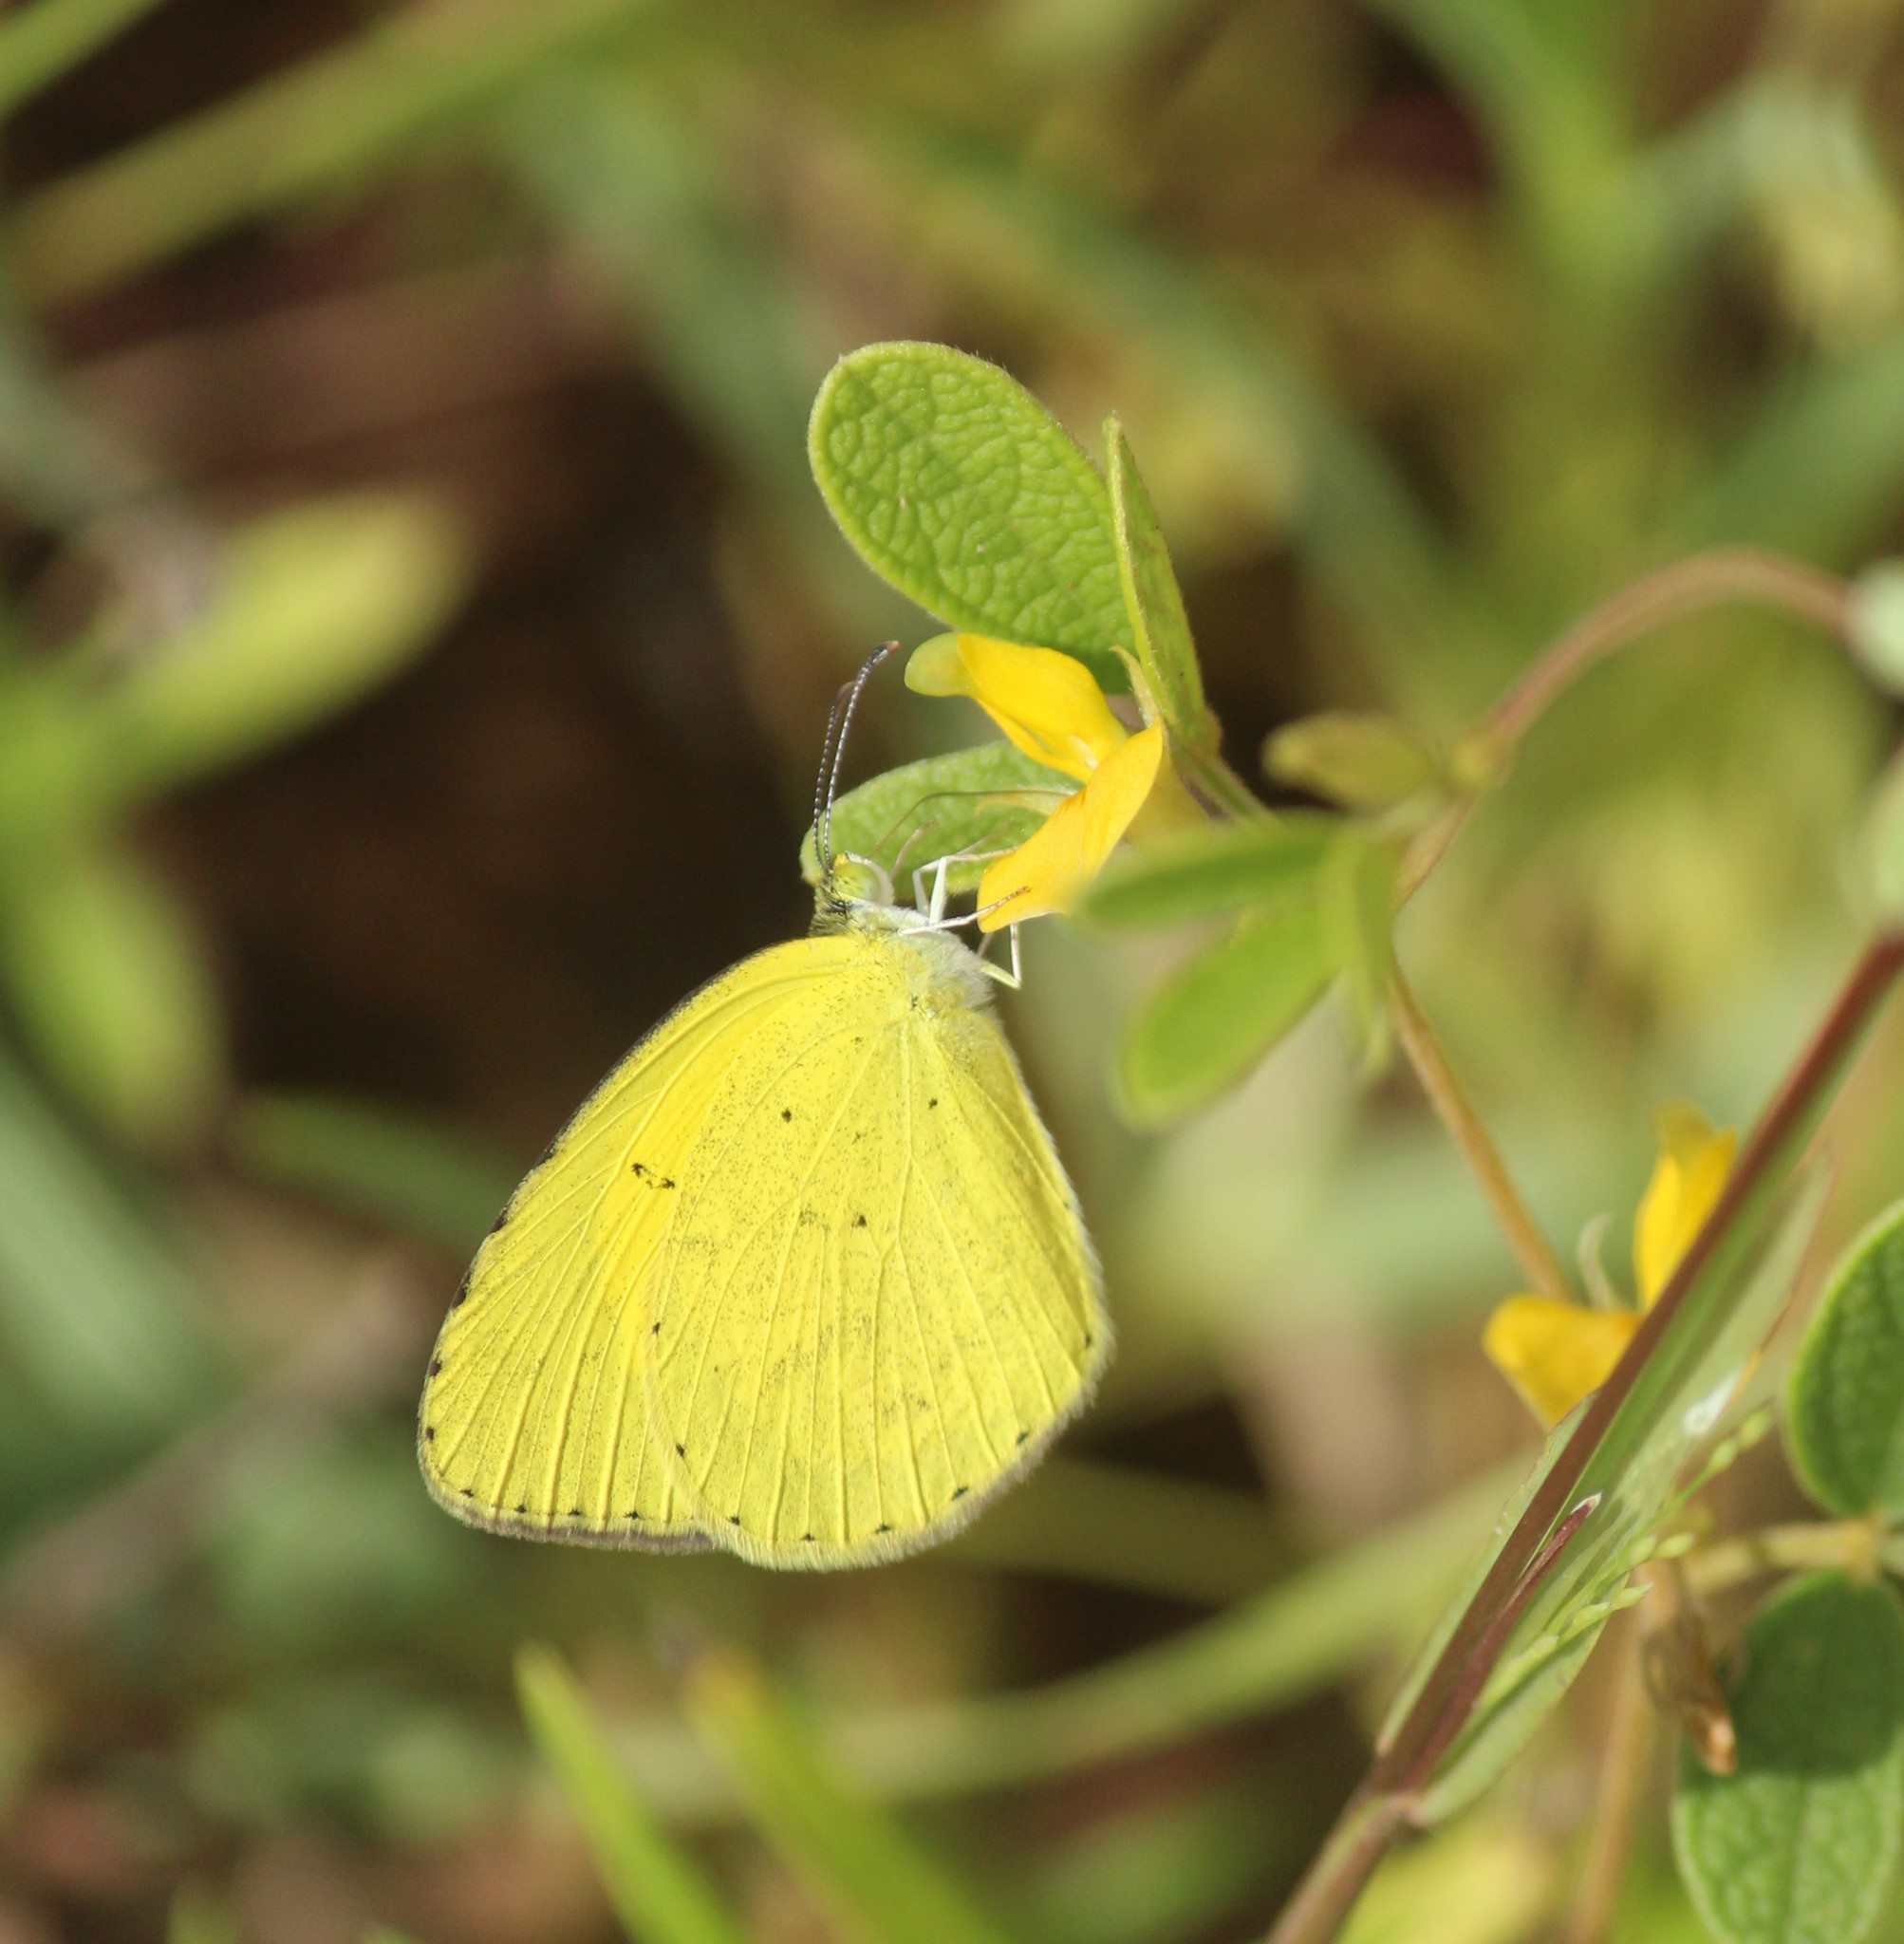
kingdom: Animalia
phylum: Arthropoda
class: Insecta
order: Lepidoptera
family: Pieridae
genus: Eurema
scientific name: Eurema brigitta
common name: Small grass yellow
